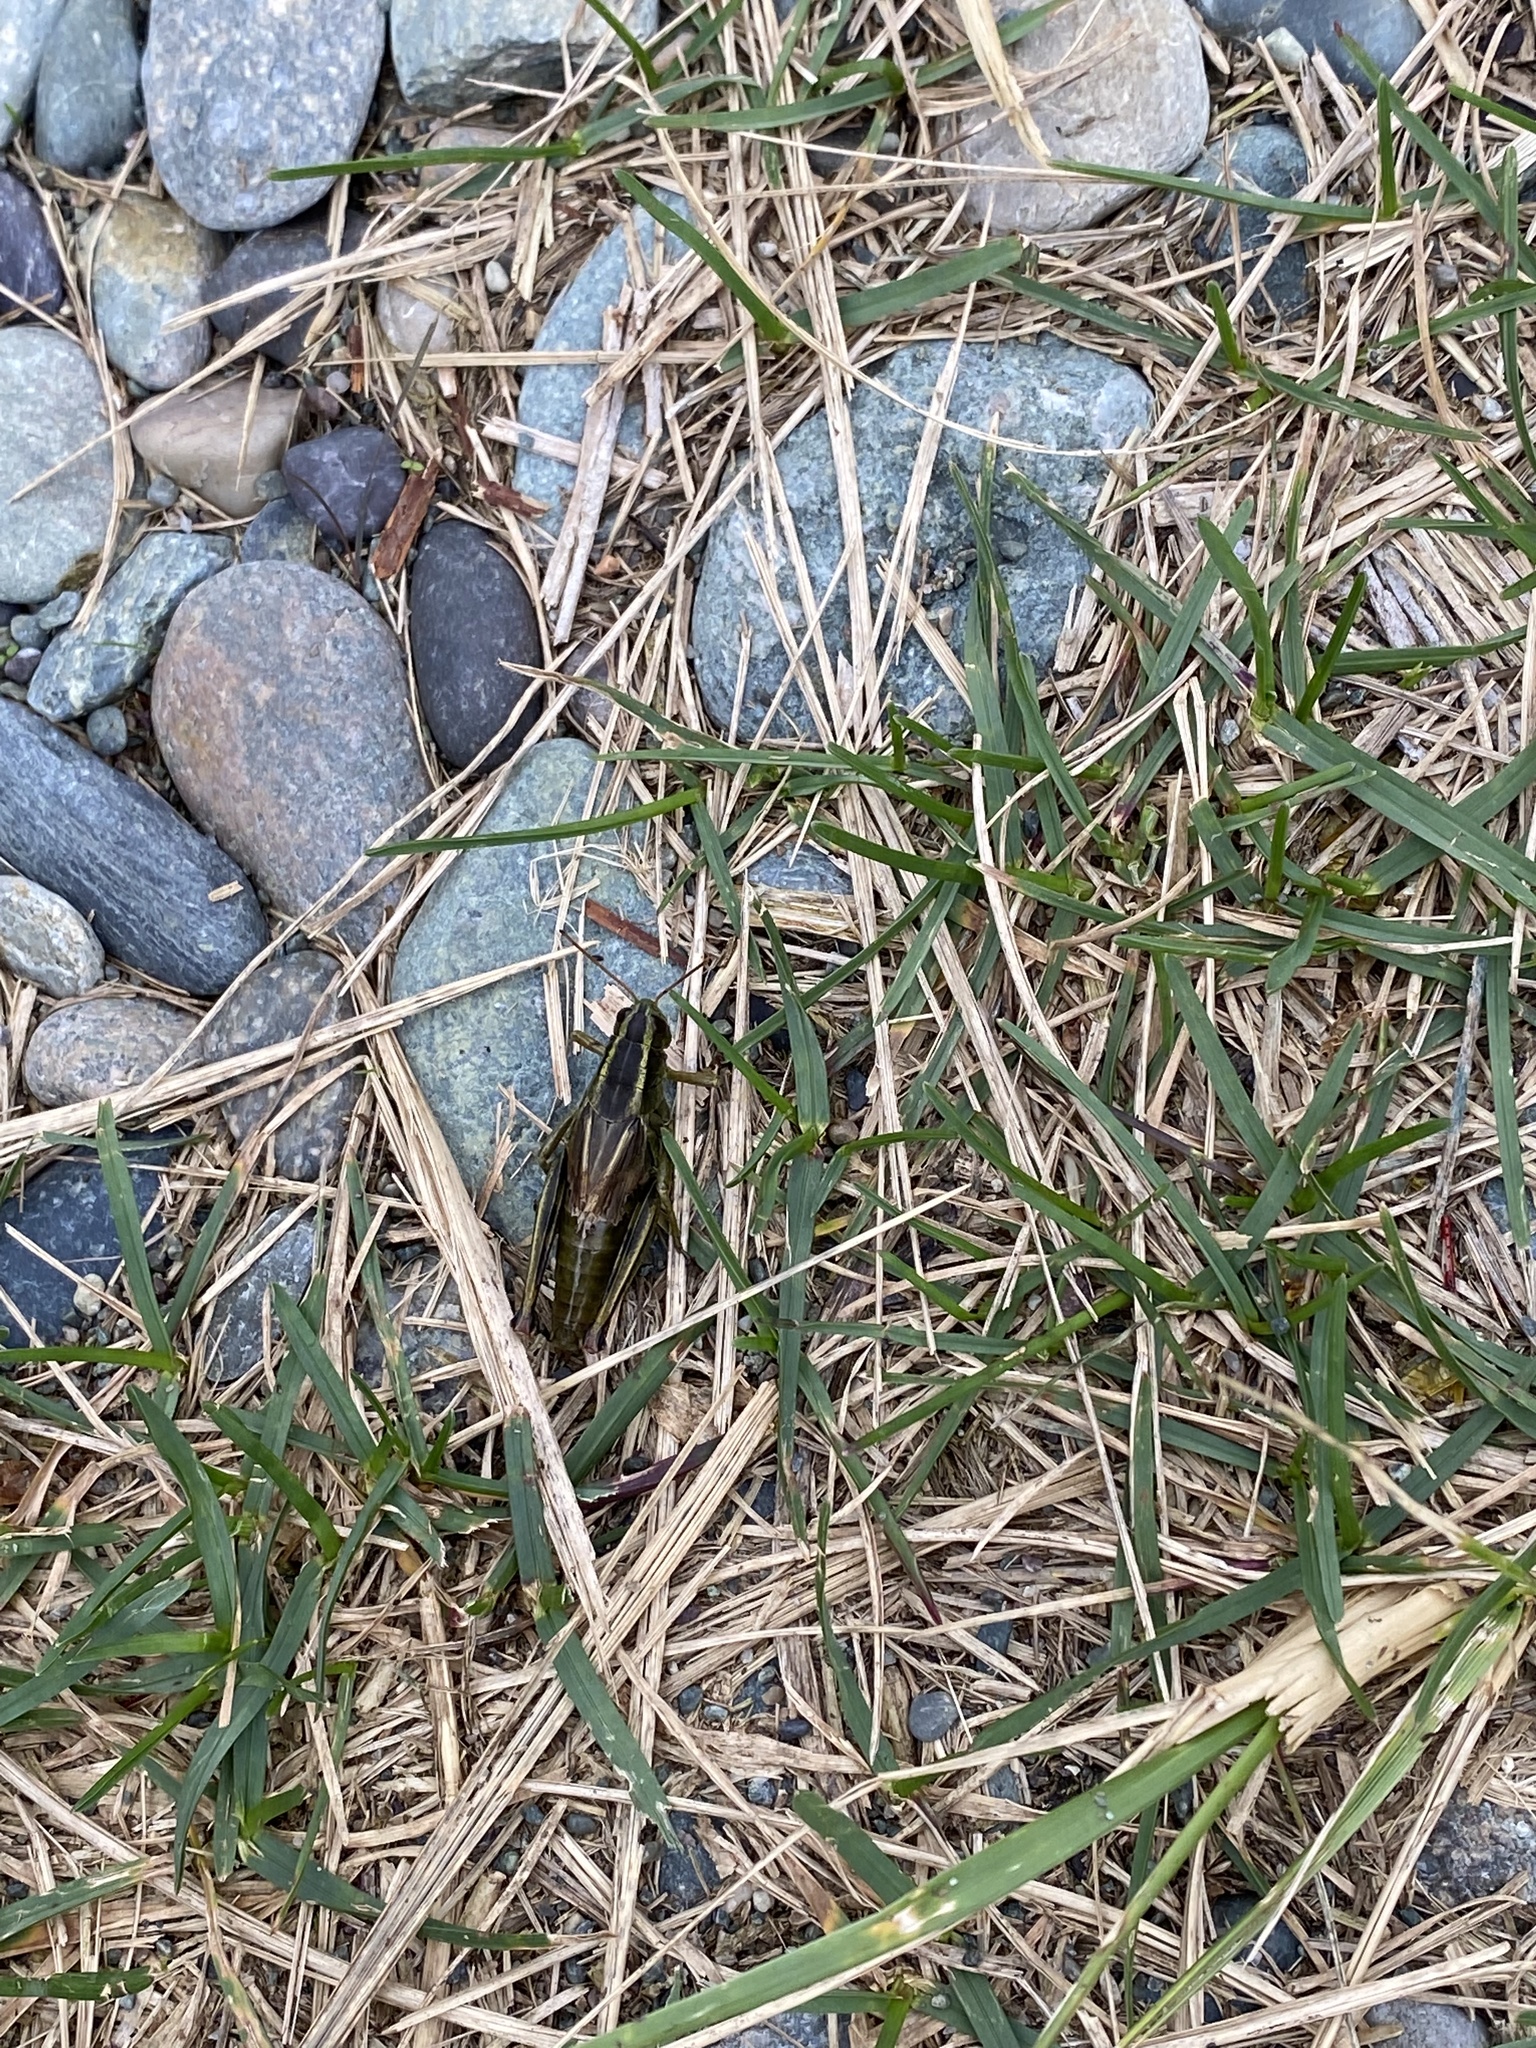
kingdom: Animalia
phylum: Arthropoda
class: Insecta
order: Orthoptera
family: Acrididae
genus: Melanoplus
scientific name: Melanoplus bivittatus
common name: Two-striped grasshopper
